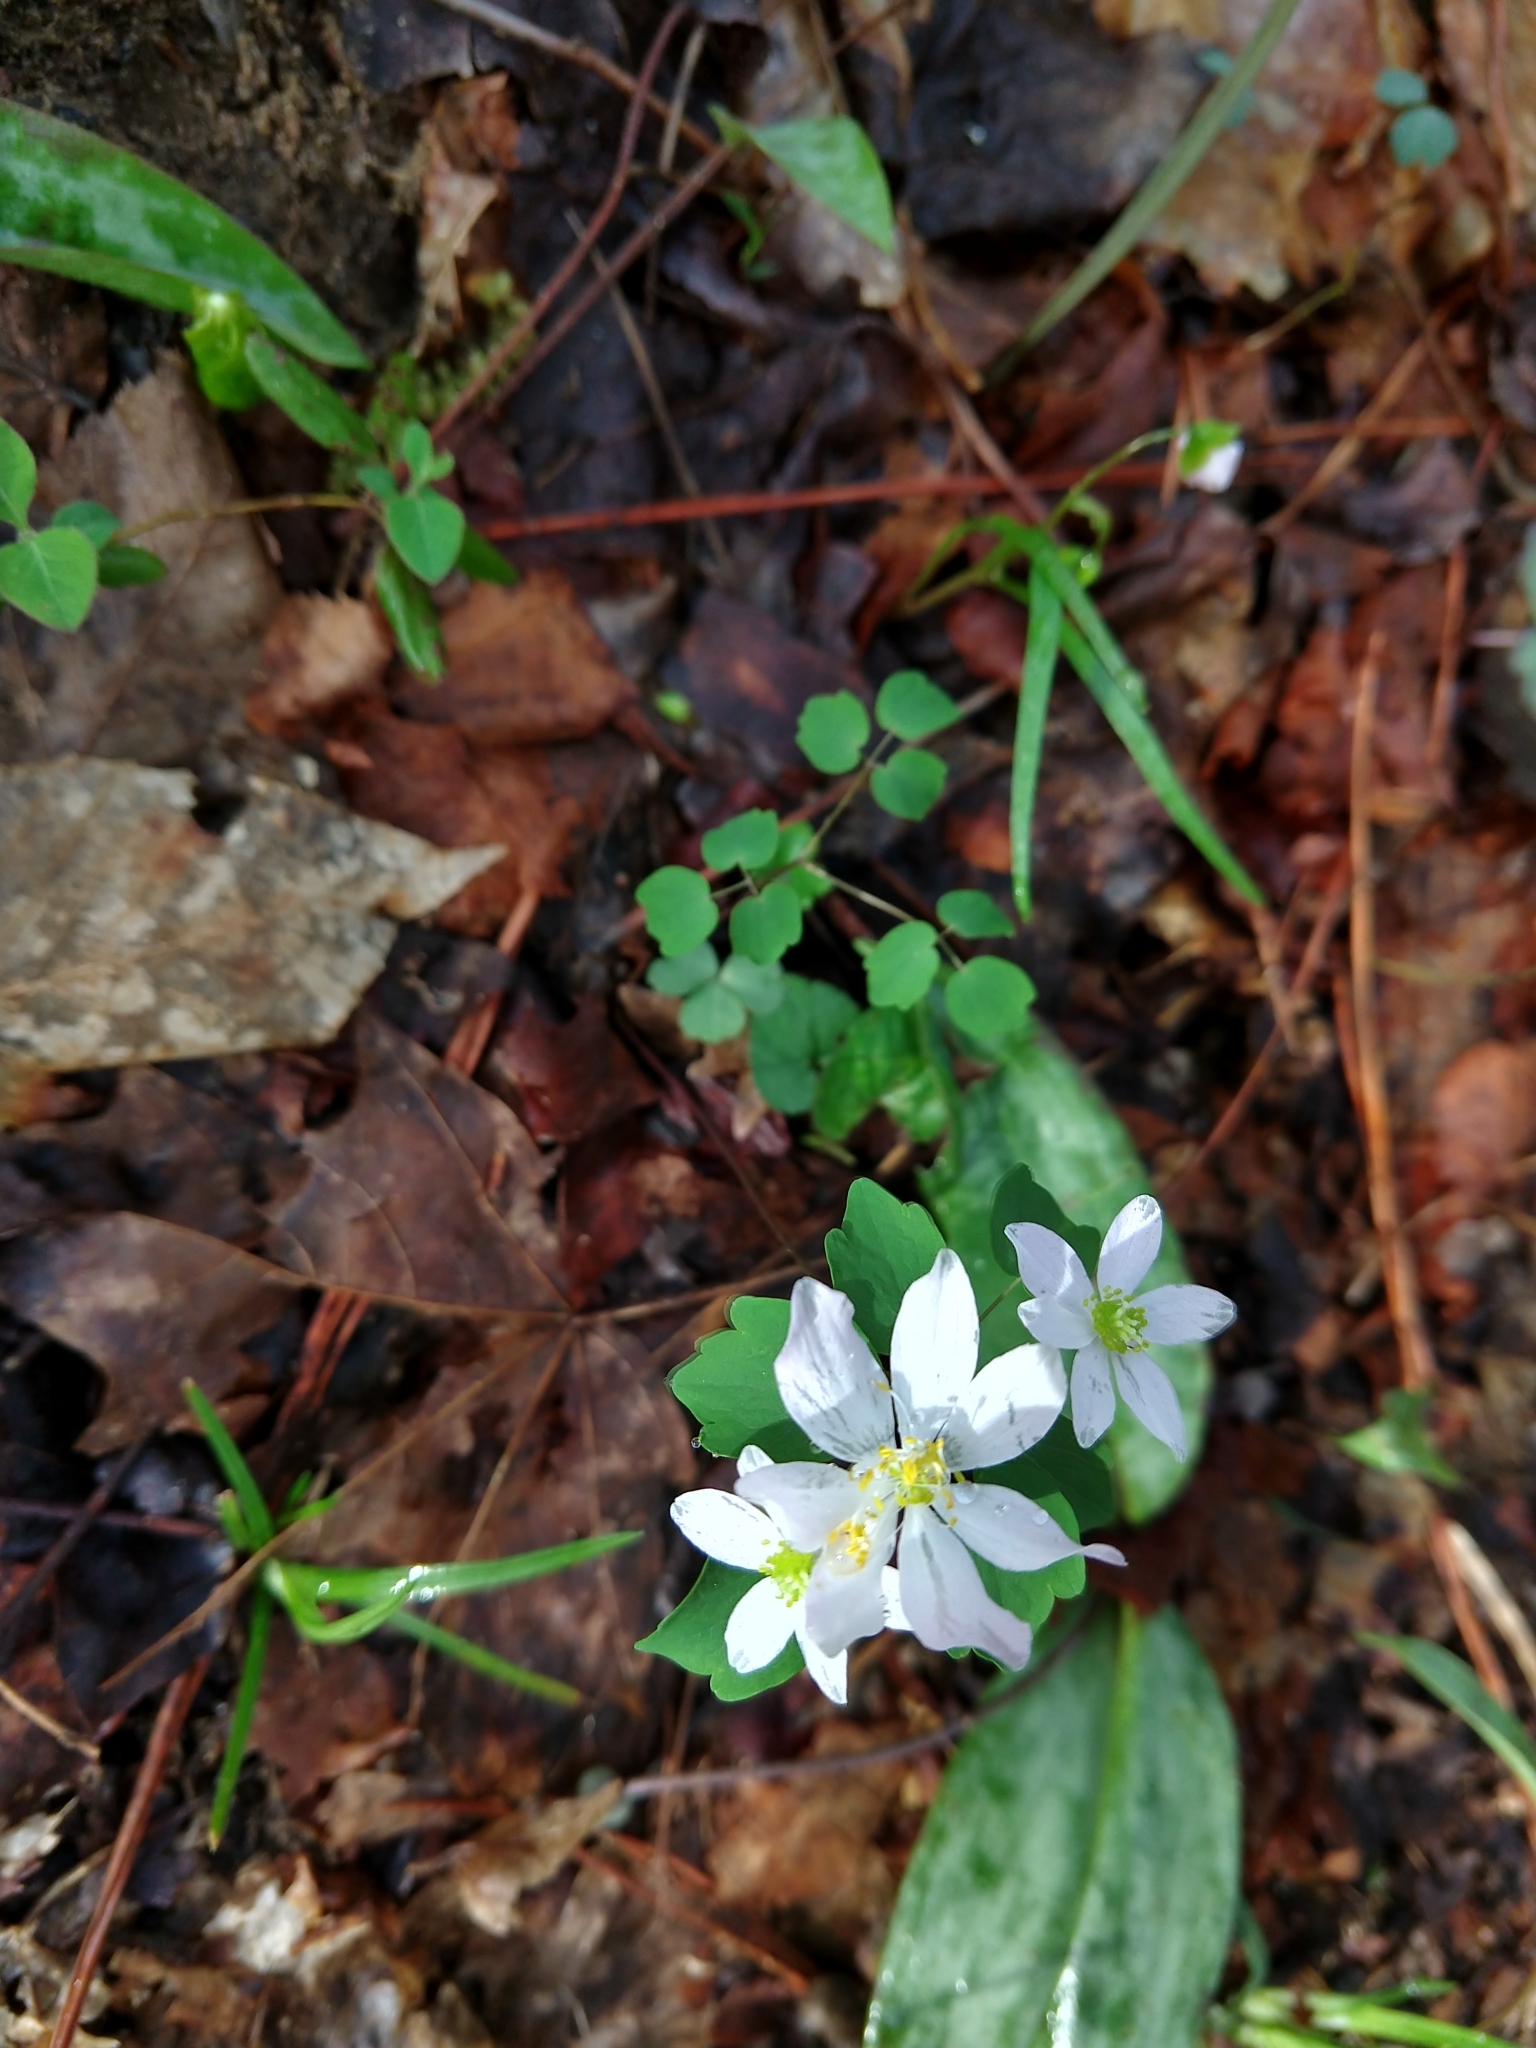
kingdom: Plantae
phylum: Tracheophyta
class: Magnoliopsida
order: Ranunculales
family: Ranunculaceae
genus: Thalictrum
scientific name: Thalictrum thalictroides
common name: Rue-anemone
